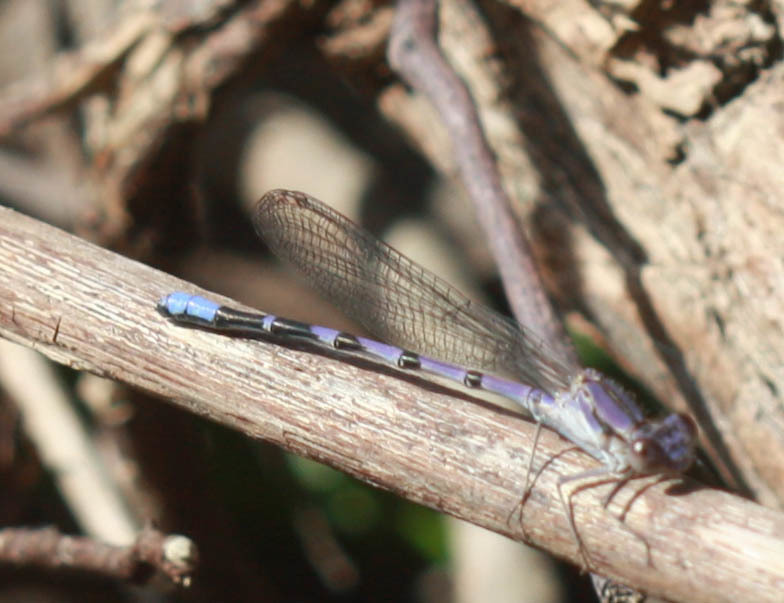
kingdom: Animalia
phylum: Arthropoda
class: Insecta
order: Odonata
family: Coenagrionidae
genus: Argia
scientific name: Argia emma
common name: Emma's dancer
